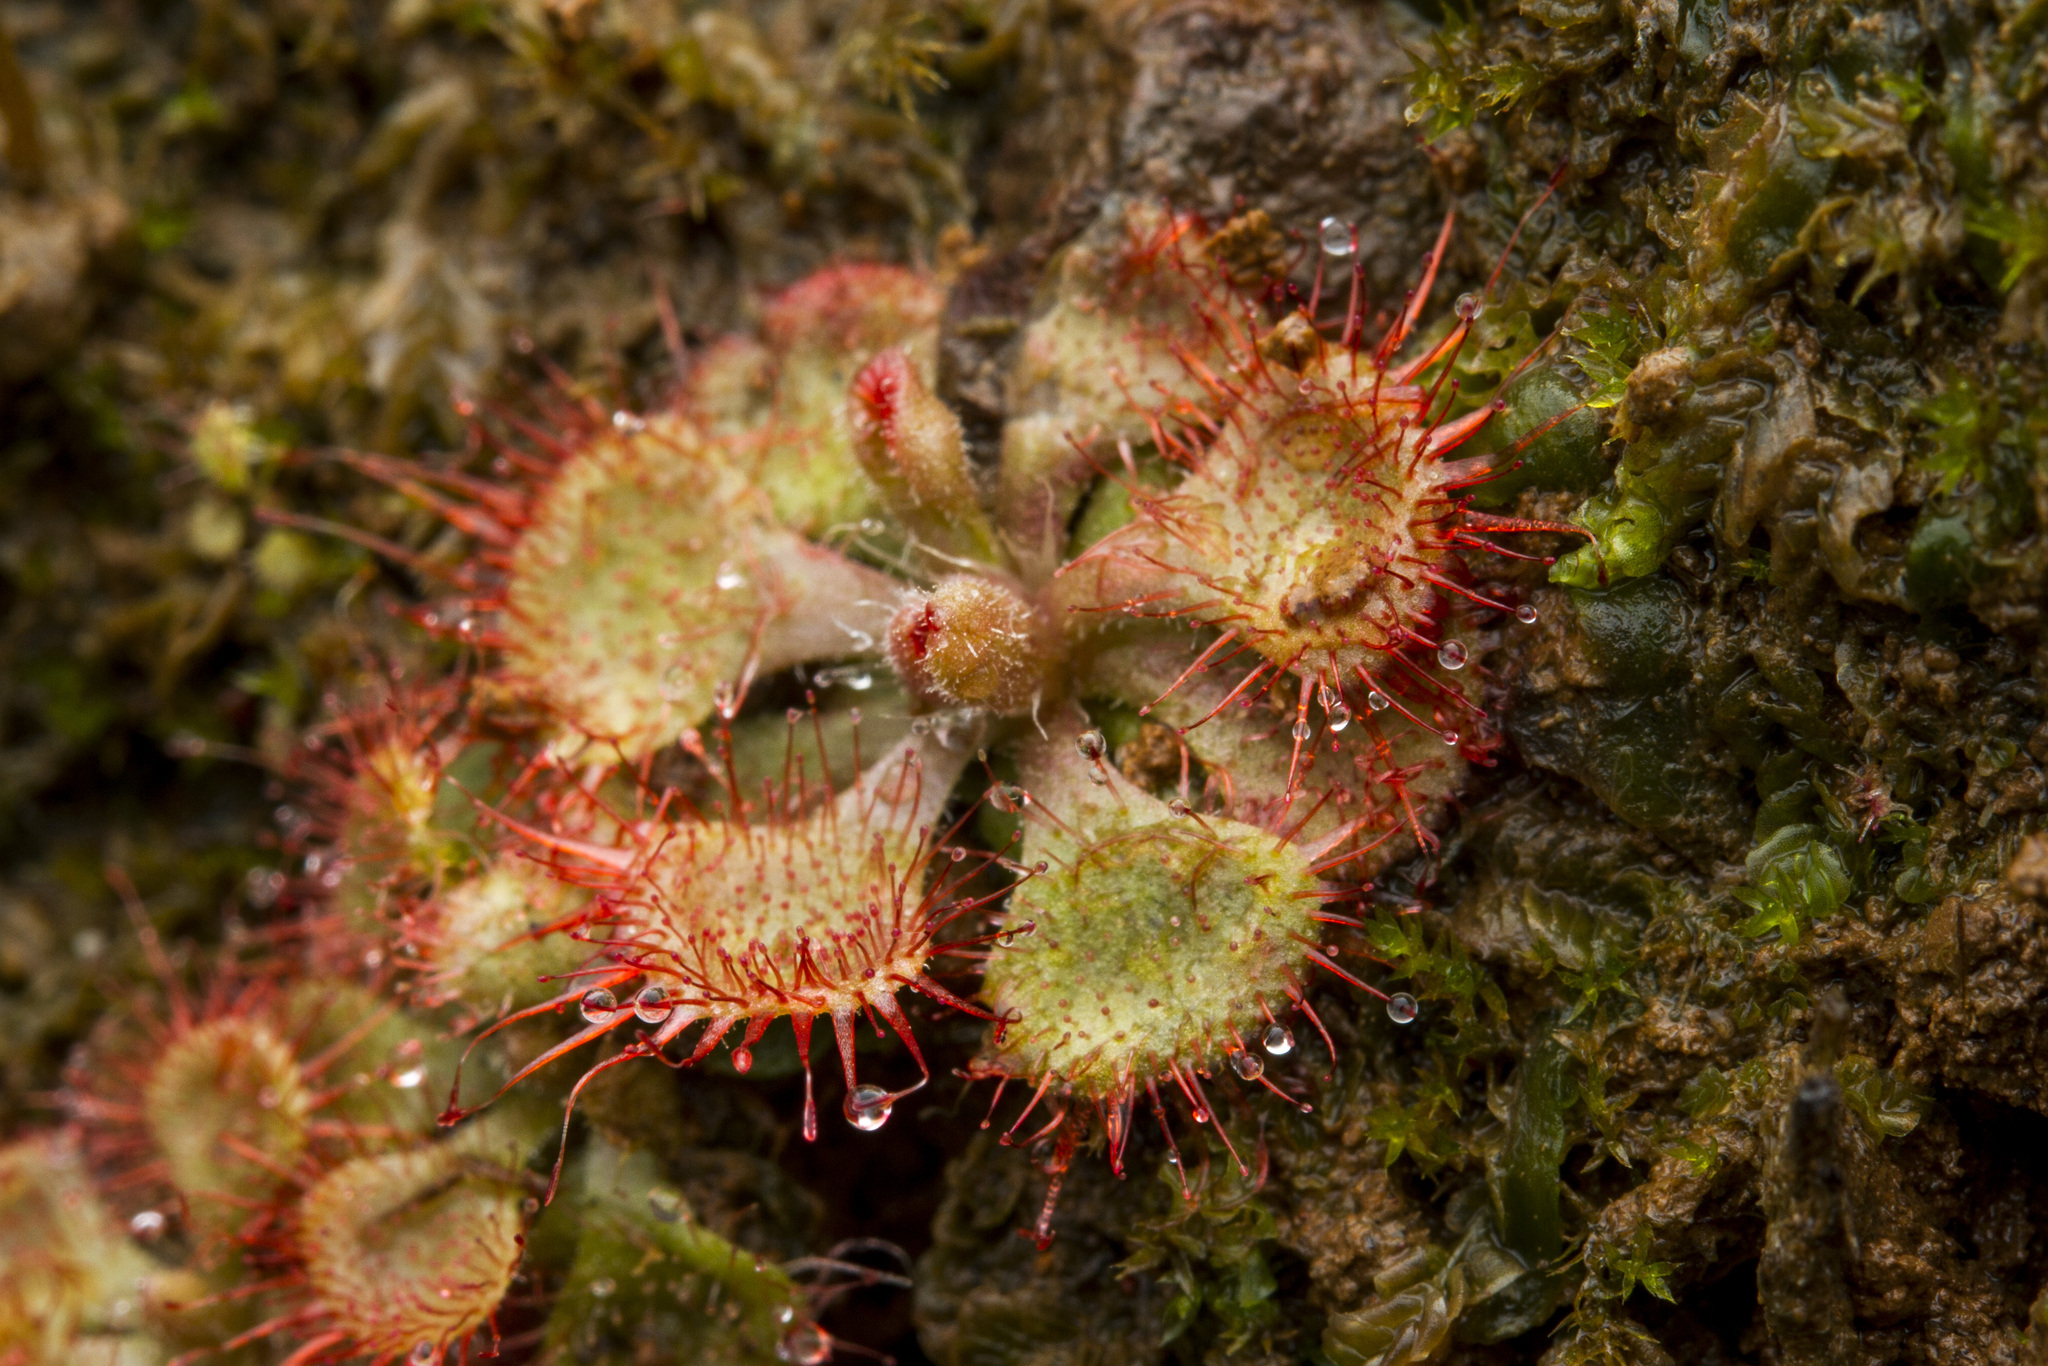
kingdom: Plantae
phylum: Tracheophyta
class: Magnoliopsida
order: Caryophyllales
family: Droseraceae
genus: Drosera
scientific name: Drosera spatulata
